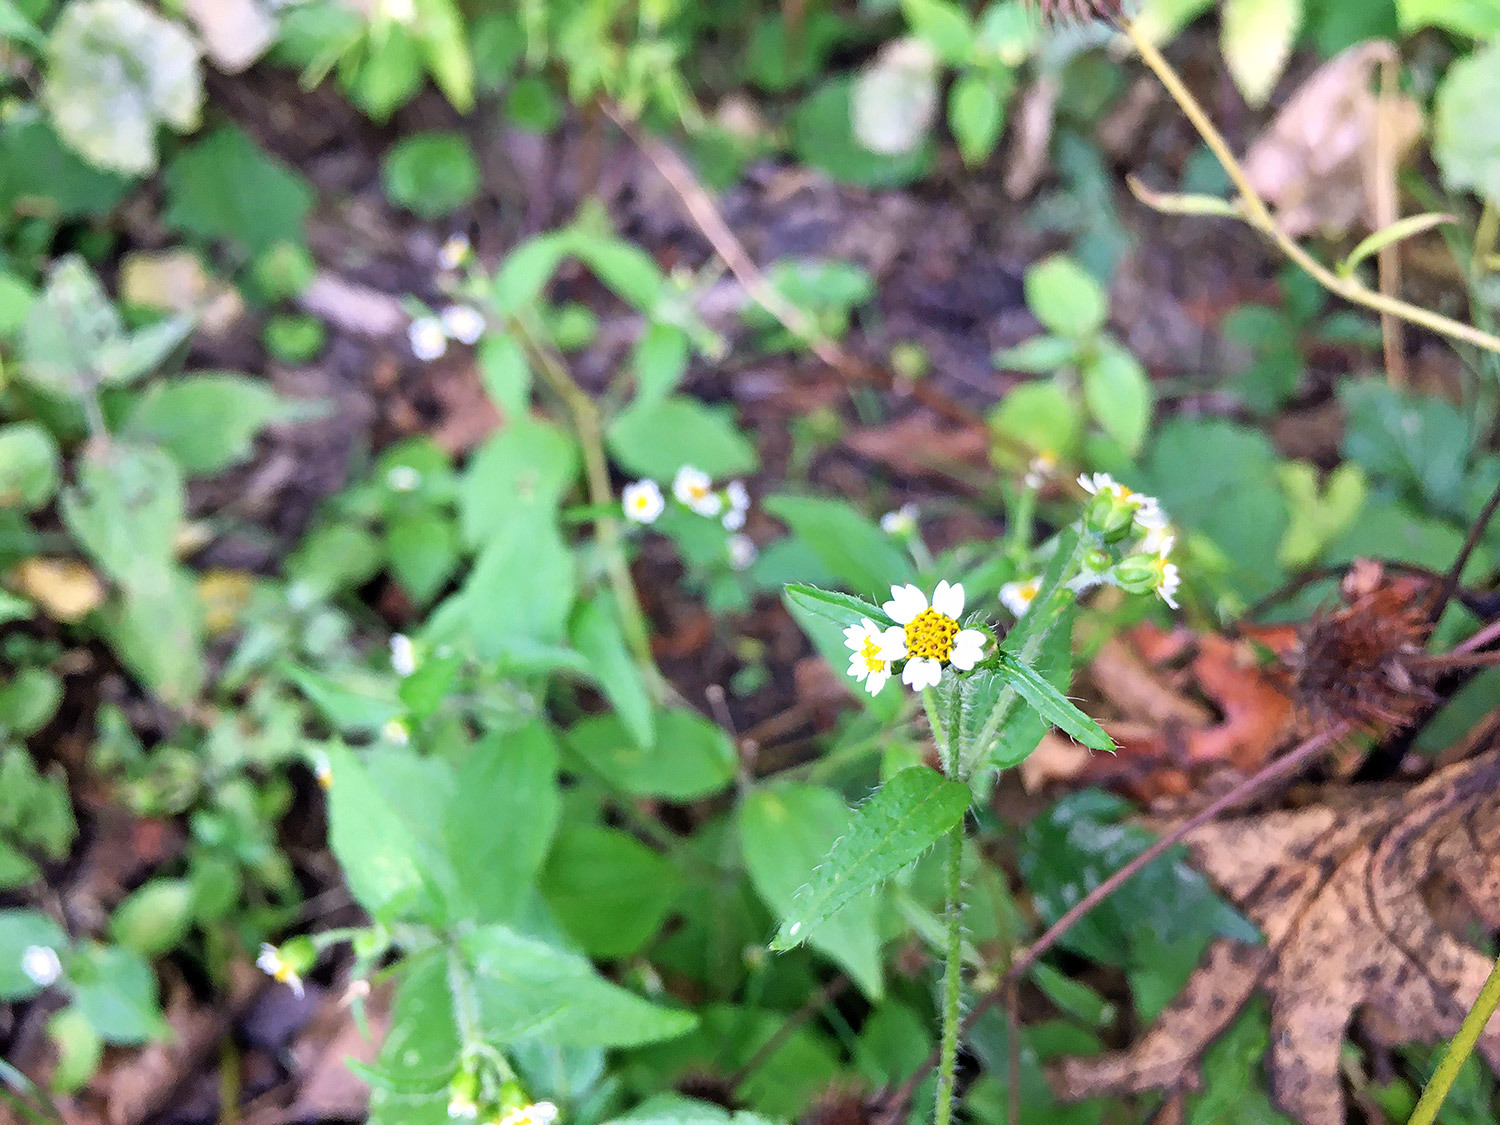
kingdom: Plantae
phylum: Tracheophyta
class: Magnoliopsida
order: Asterales
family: Asteraceae
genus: Galinsoga
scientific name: Galinsoga quadriradiata
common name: Shaggy soldier
